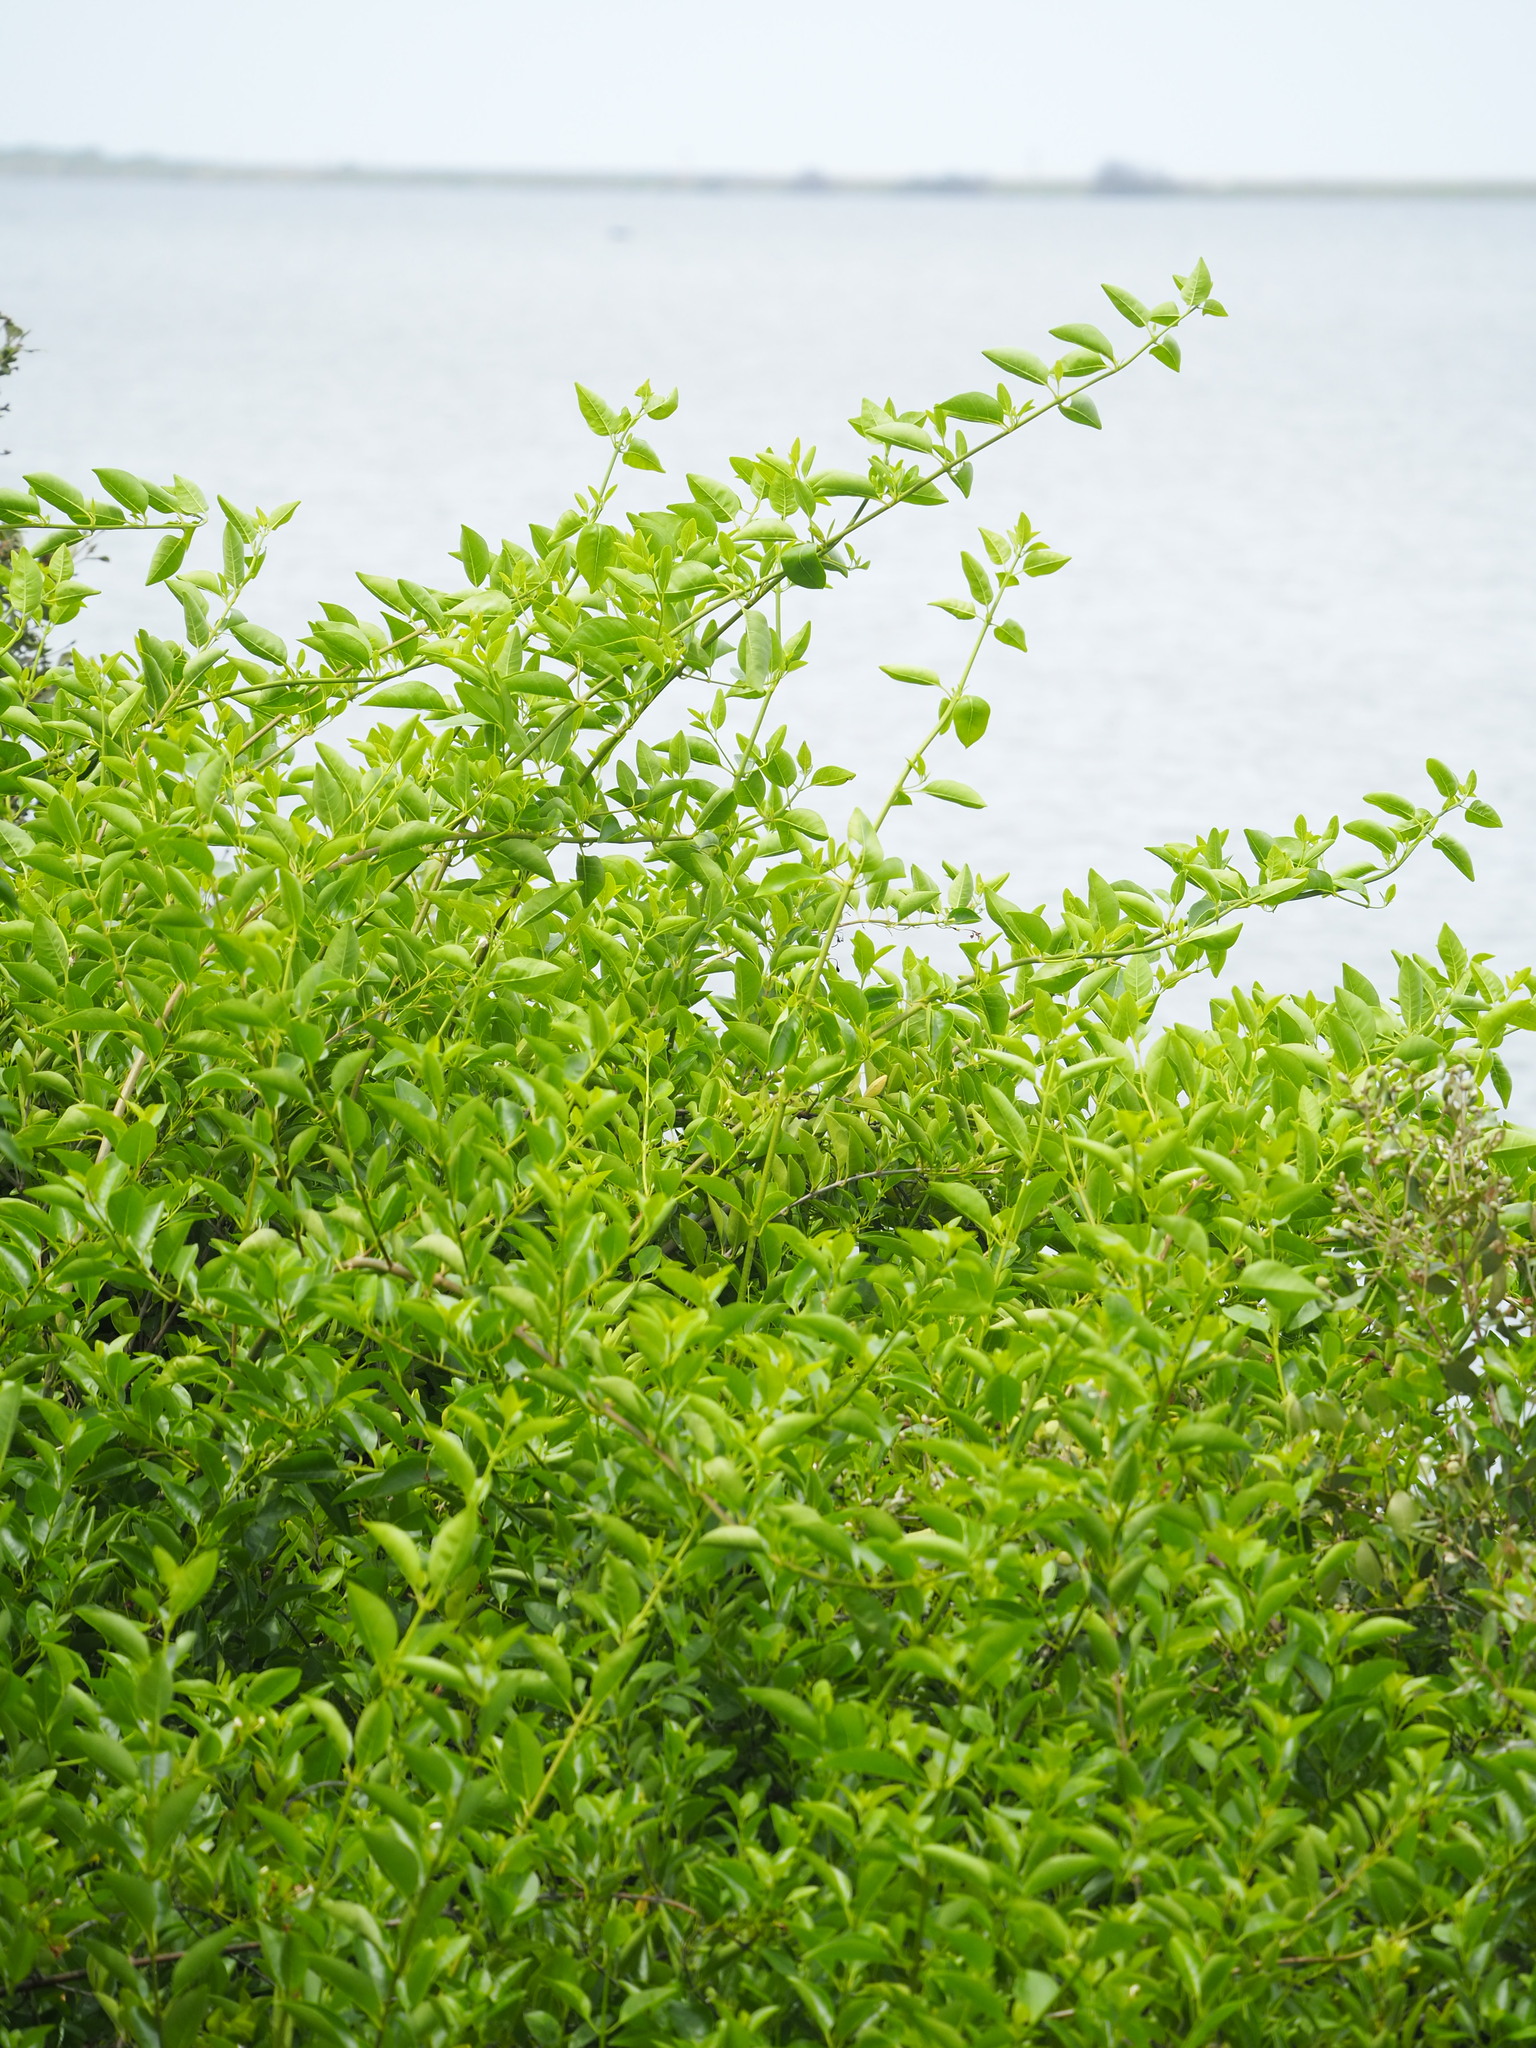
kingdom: Plantae
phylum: Tracheophyta
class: Magnoliopsida
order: Lamiales
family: Lamiaceae
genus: Volkameria
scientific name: Volkameria inermis
